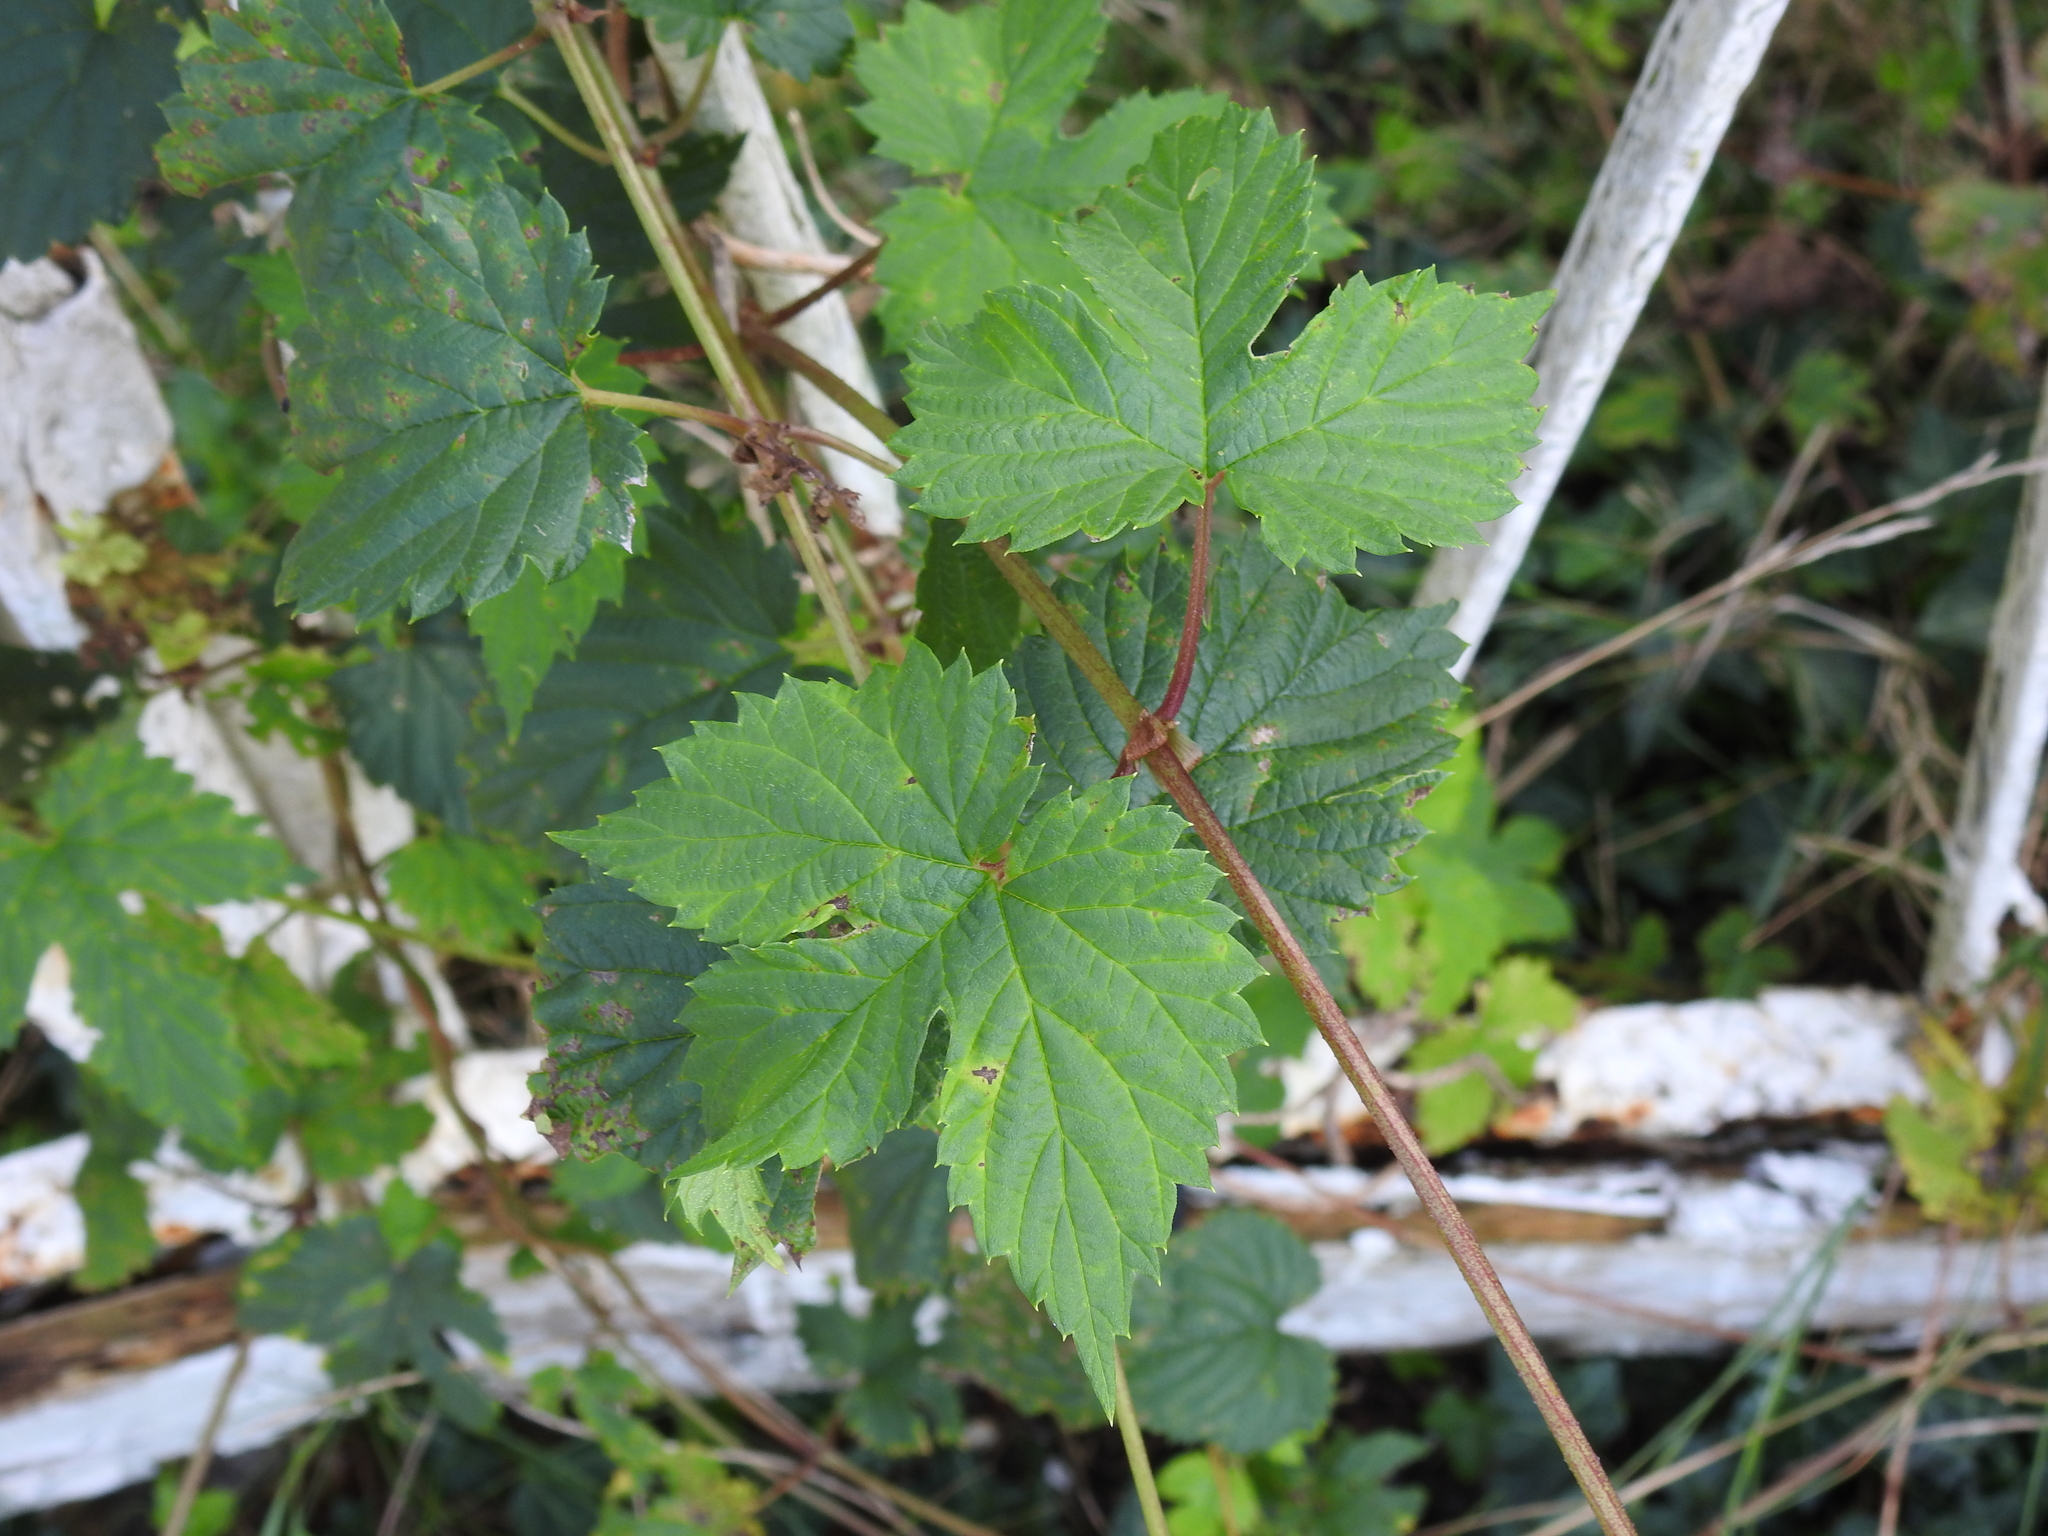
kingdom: Plantae
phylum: Tracheophyta
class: Magnoliopsida
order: Rosales
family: Cannabaceae
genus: Humulus
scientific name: Humulus lupulus
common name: Hop
